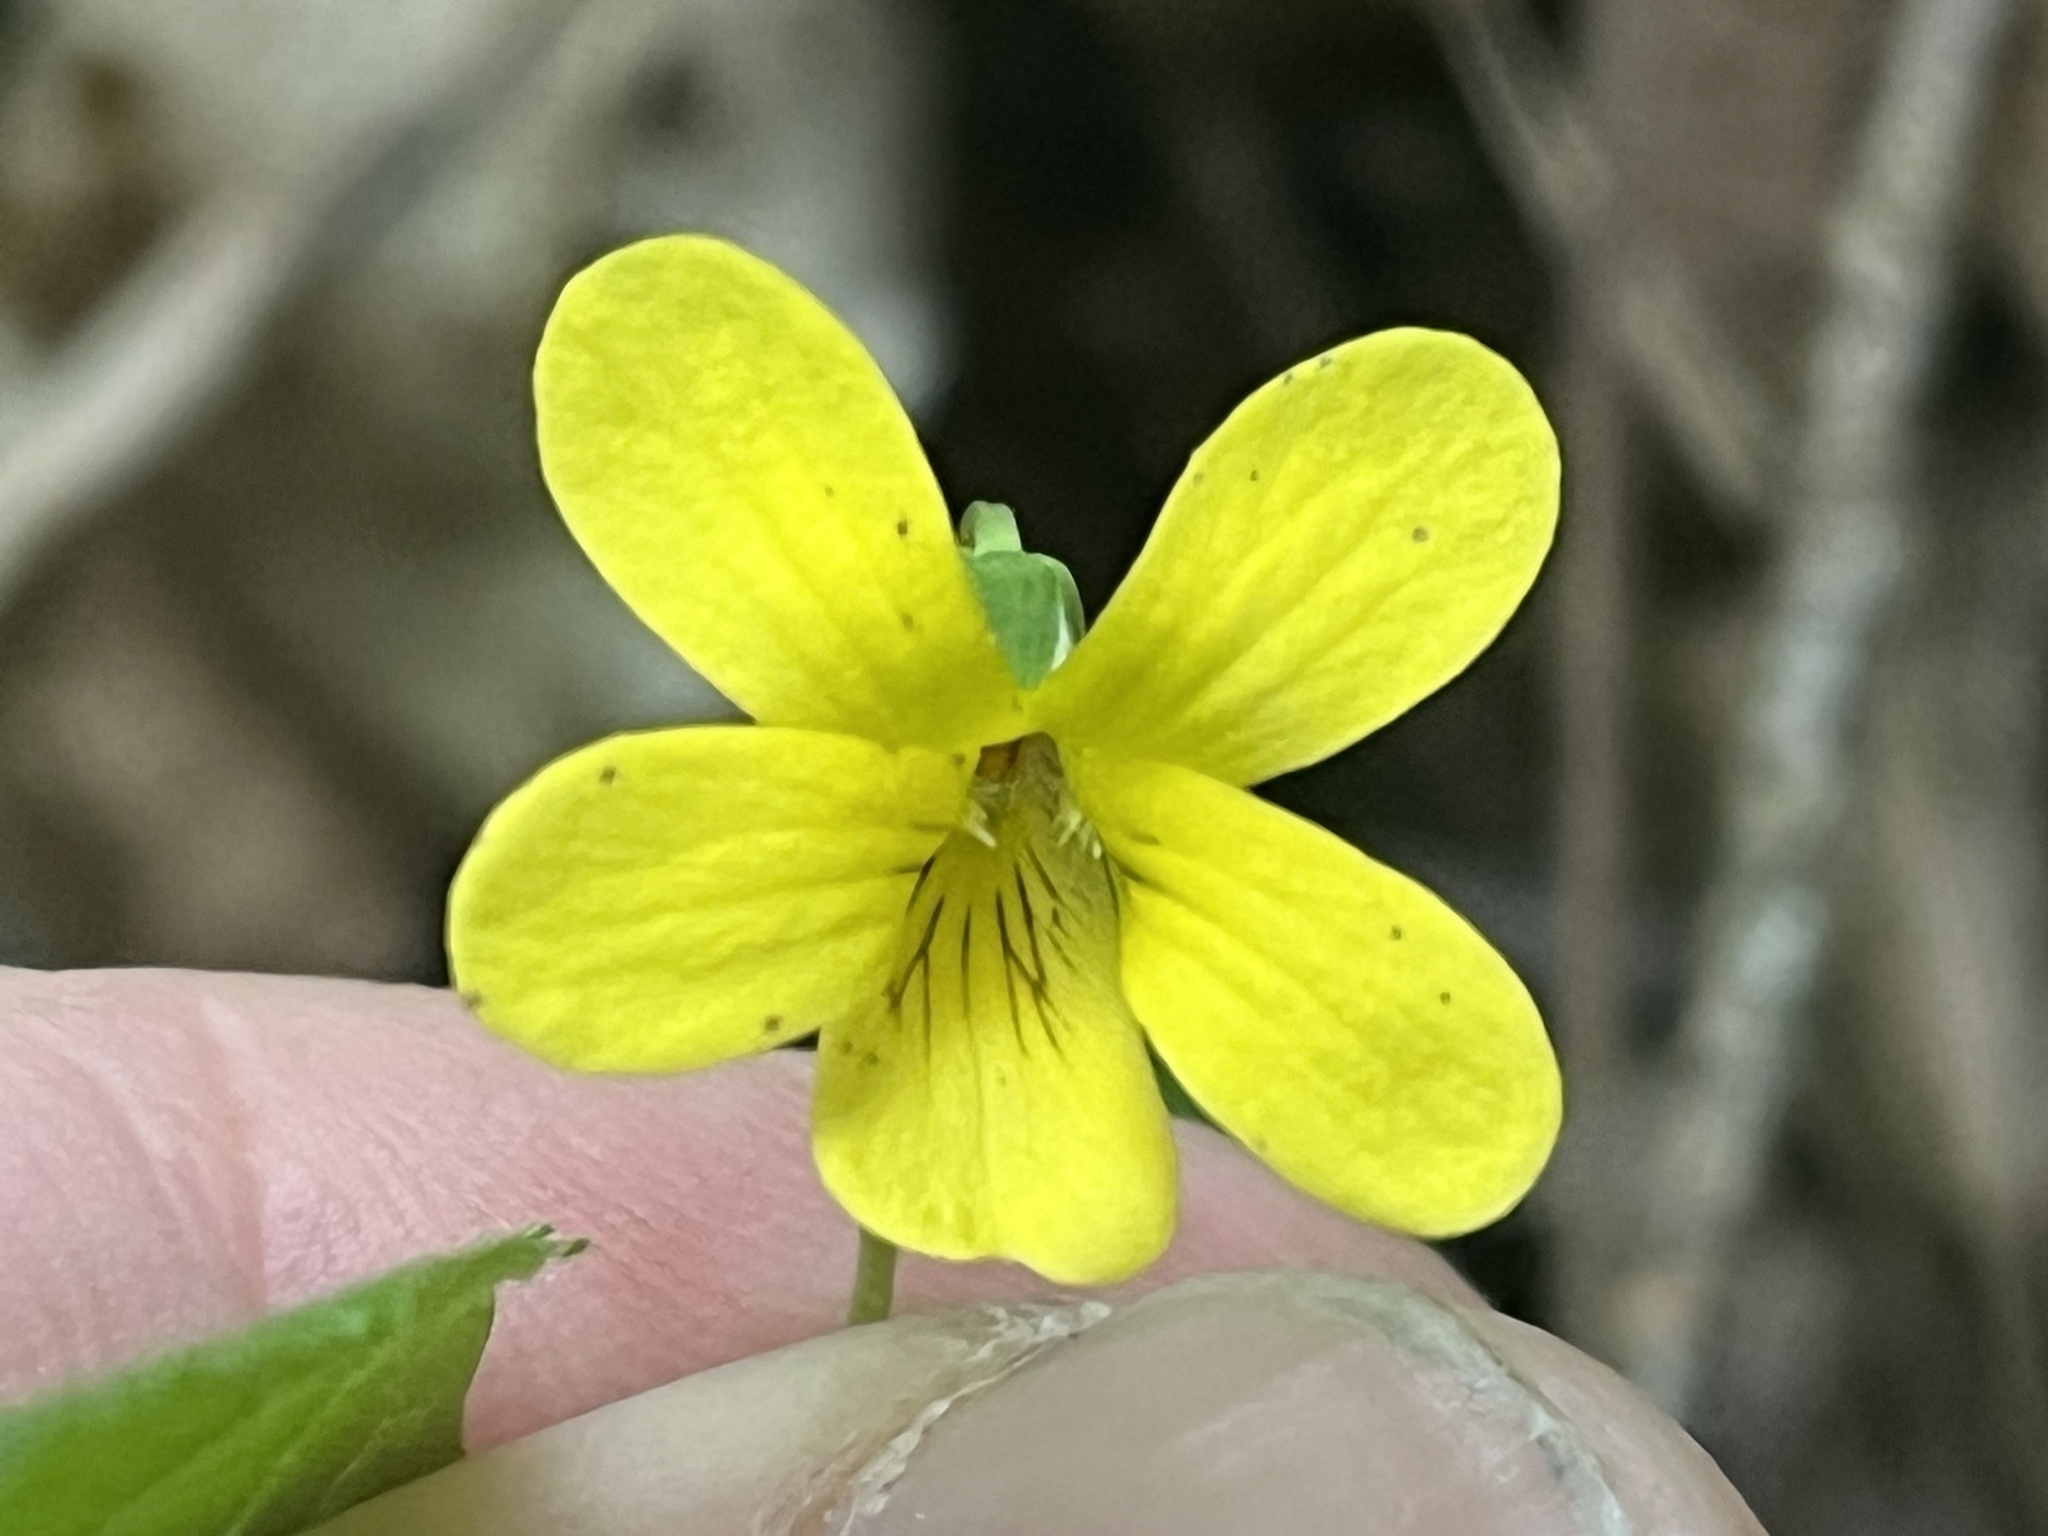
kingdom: Plantae
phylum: Tracheophyta
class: Magnoliopsida
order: Malpighiales
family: Violaceae
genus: Viola
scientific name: Viola glaberrima
